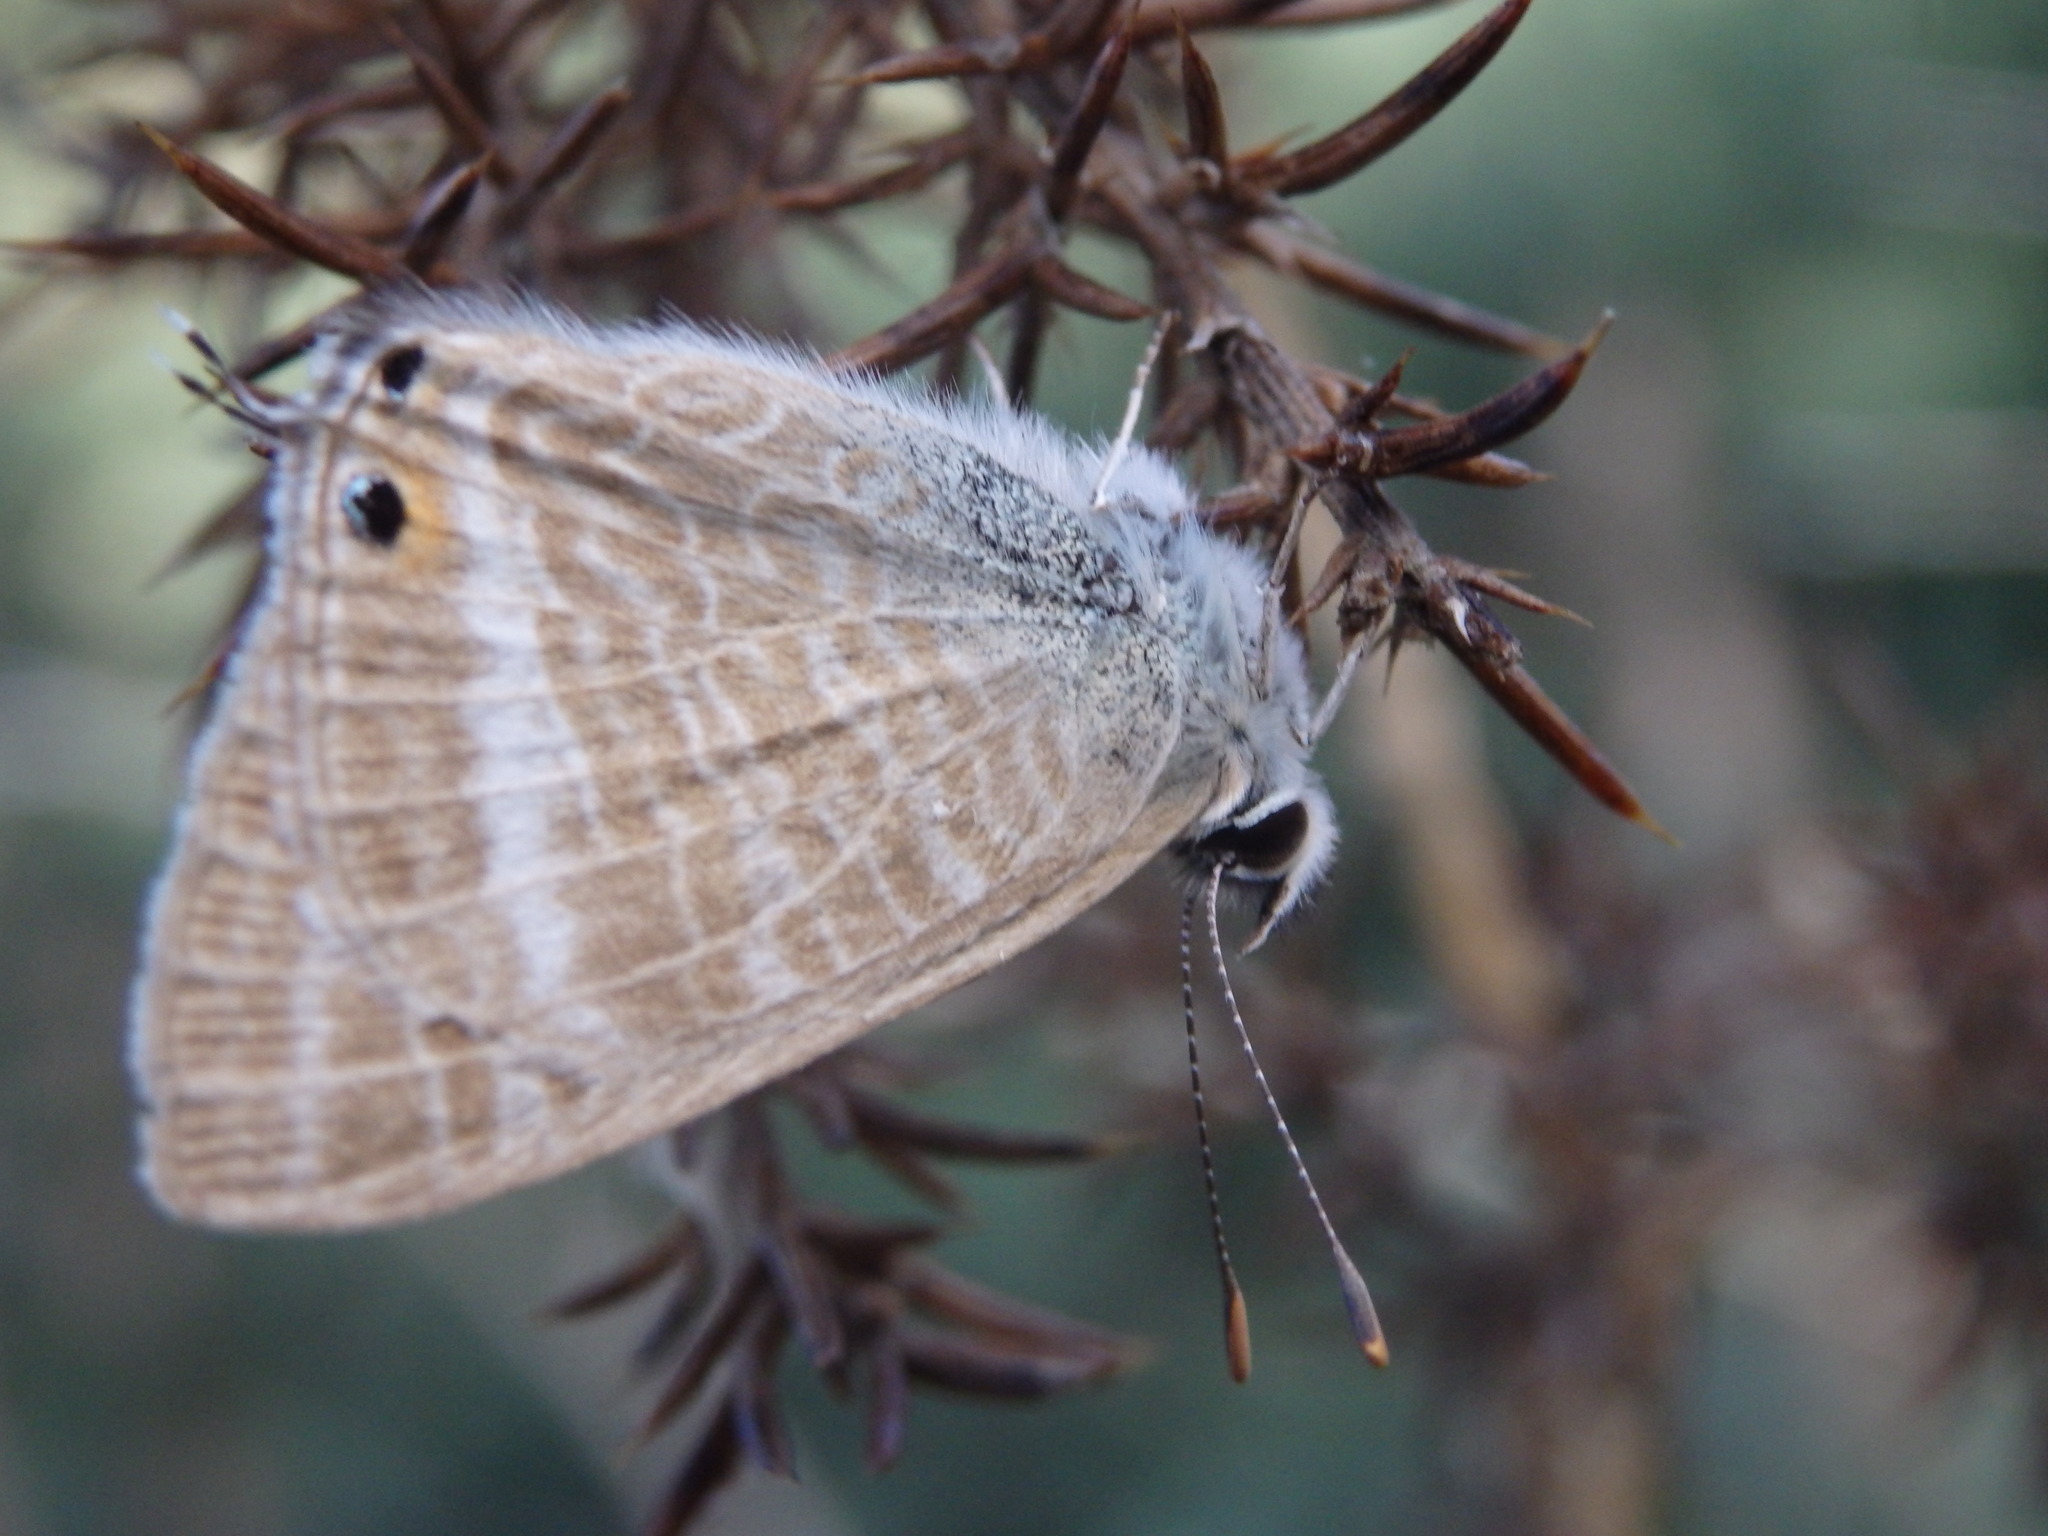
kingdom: Animalia
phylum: Arthropoda
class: Insecta
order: Lepidoptera
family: Lycaenidae
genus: Lampides
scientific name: Lampides boeticus
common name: Long-tailed blue
